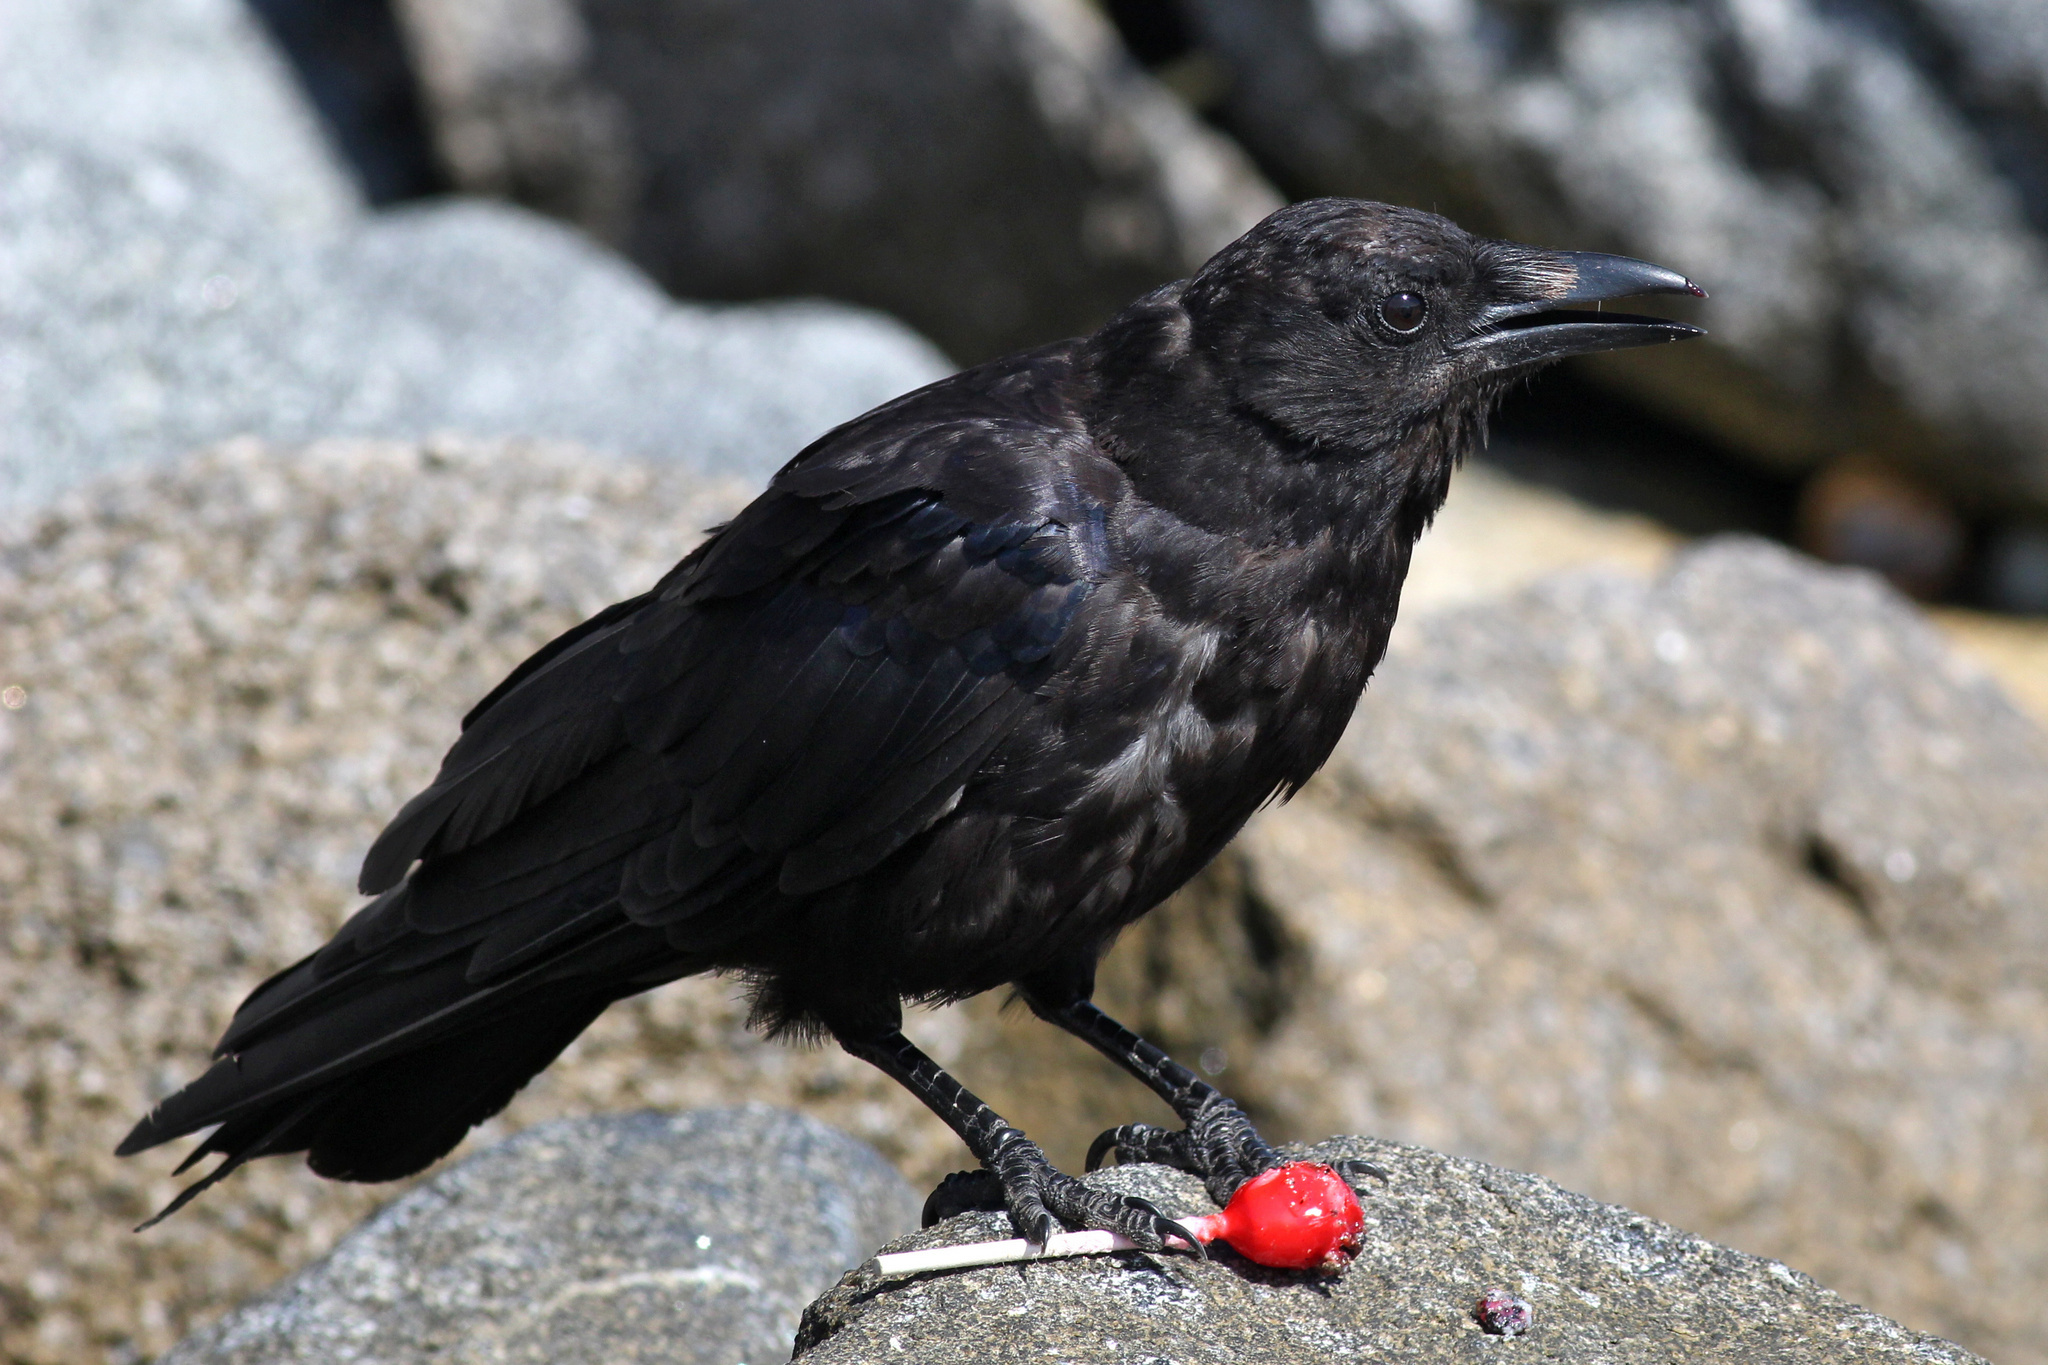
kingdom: Animalia
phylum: Chordata
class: Aves
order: Passeriformes
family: Corvidae
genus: Corvus
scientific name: Corvus brachyrhynchos
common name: American crow
